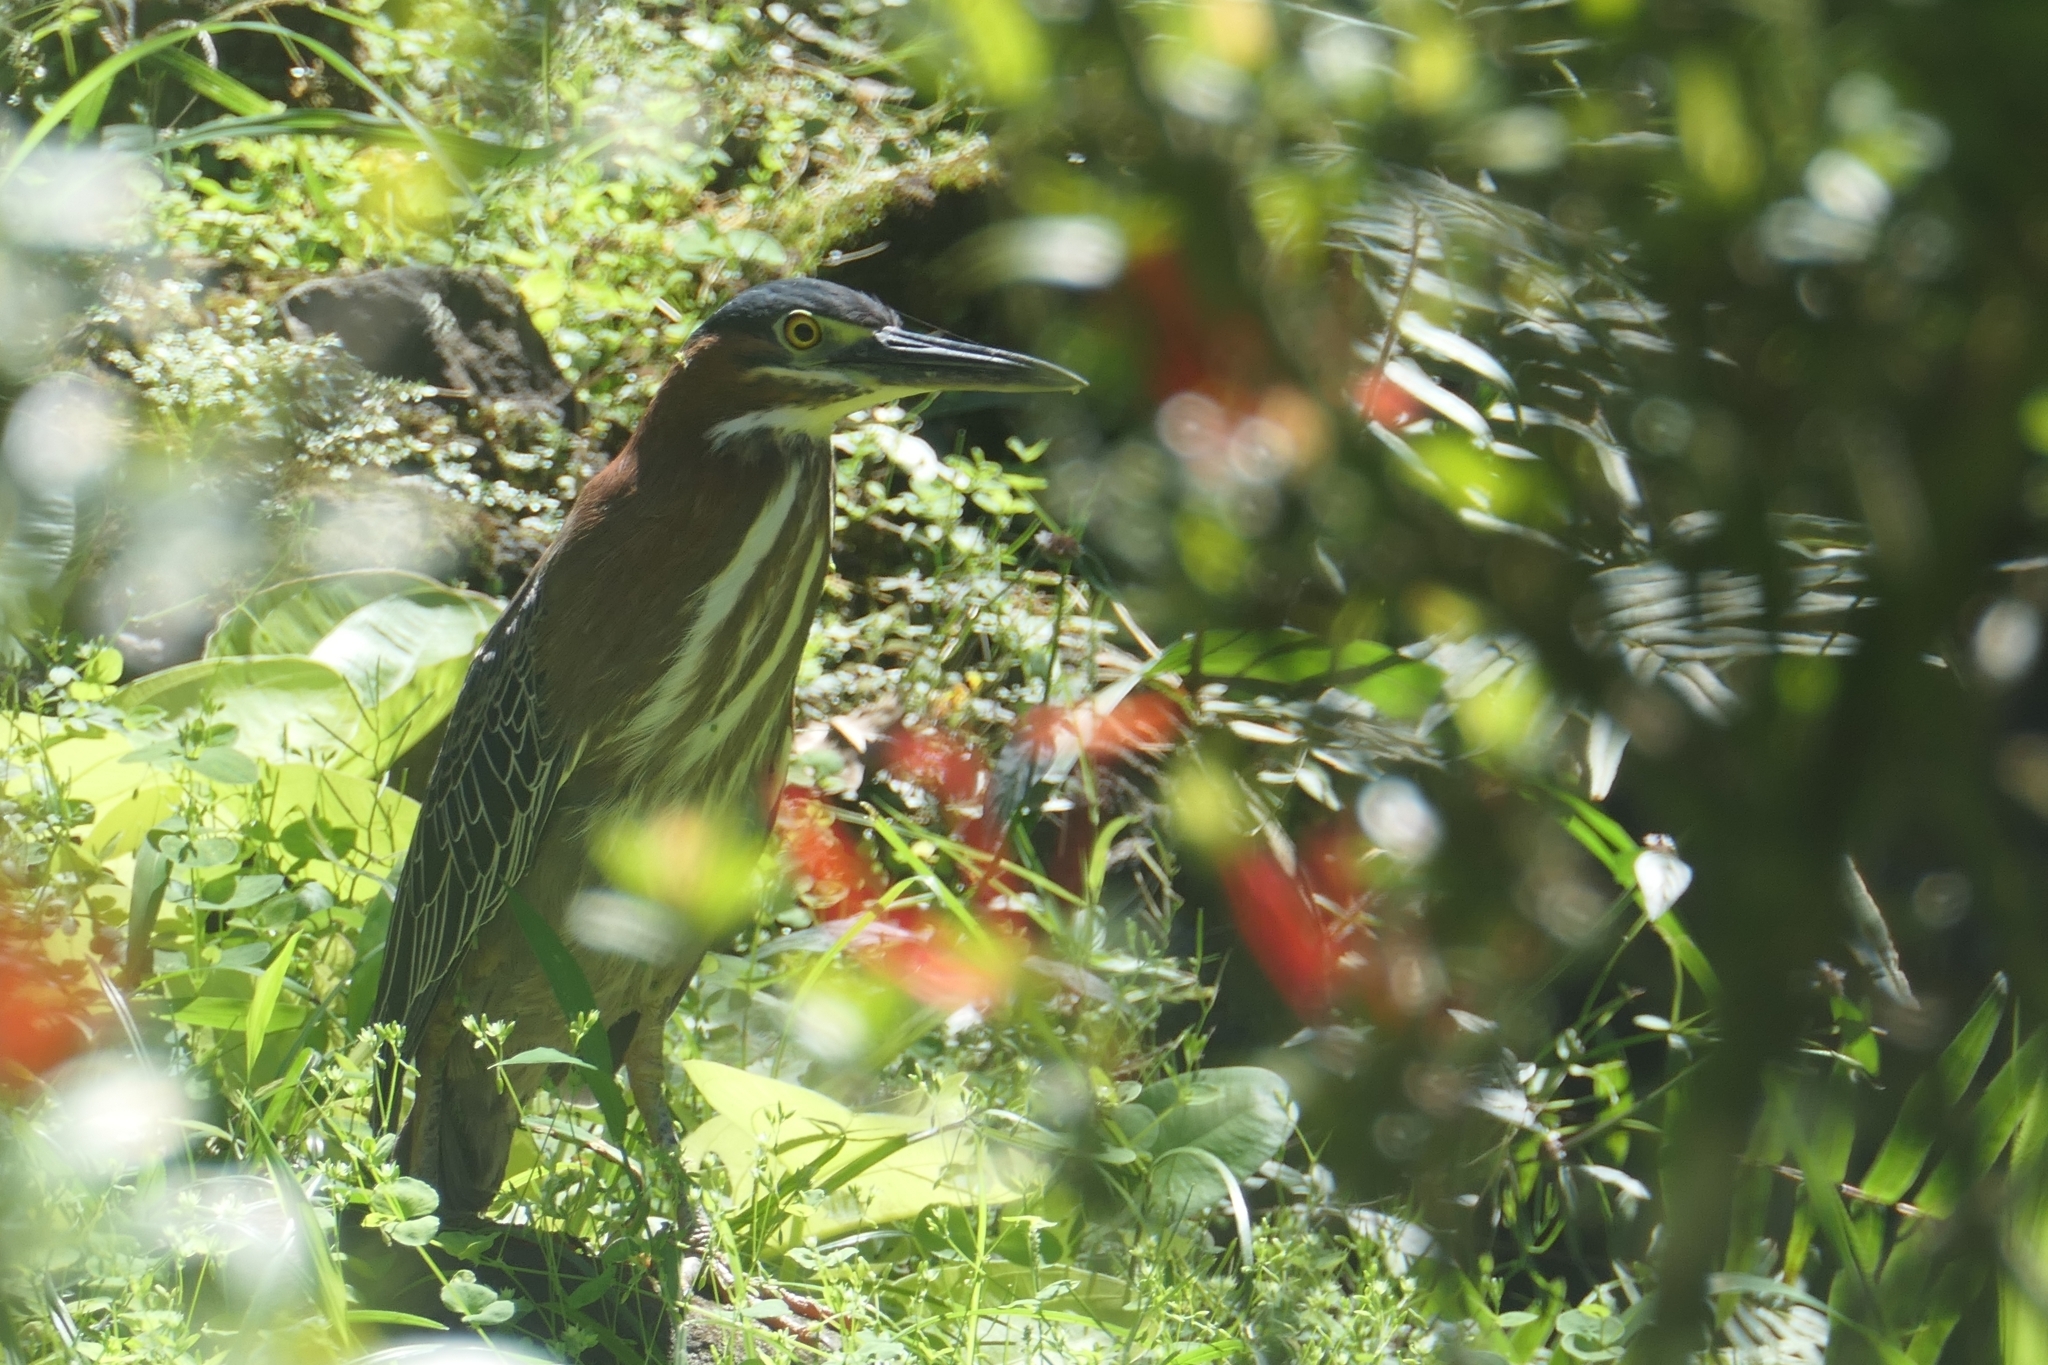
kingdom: Animalia
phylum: Chordata
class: Aves
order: Pelecaniformes
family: Ardeidae
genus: Butorides
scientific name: Butorides virescens
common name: Green heron
